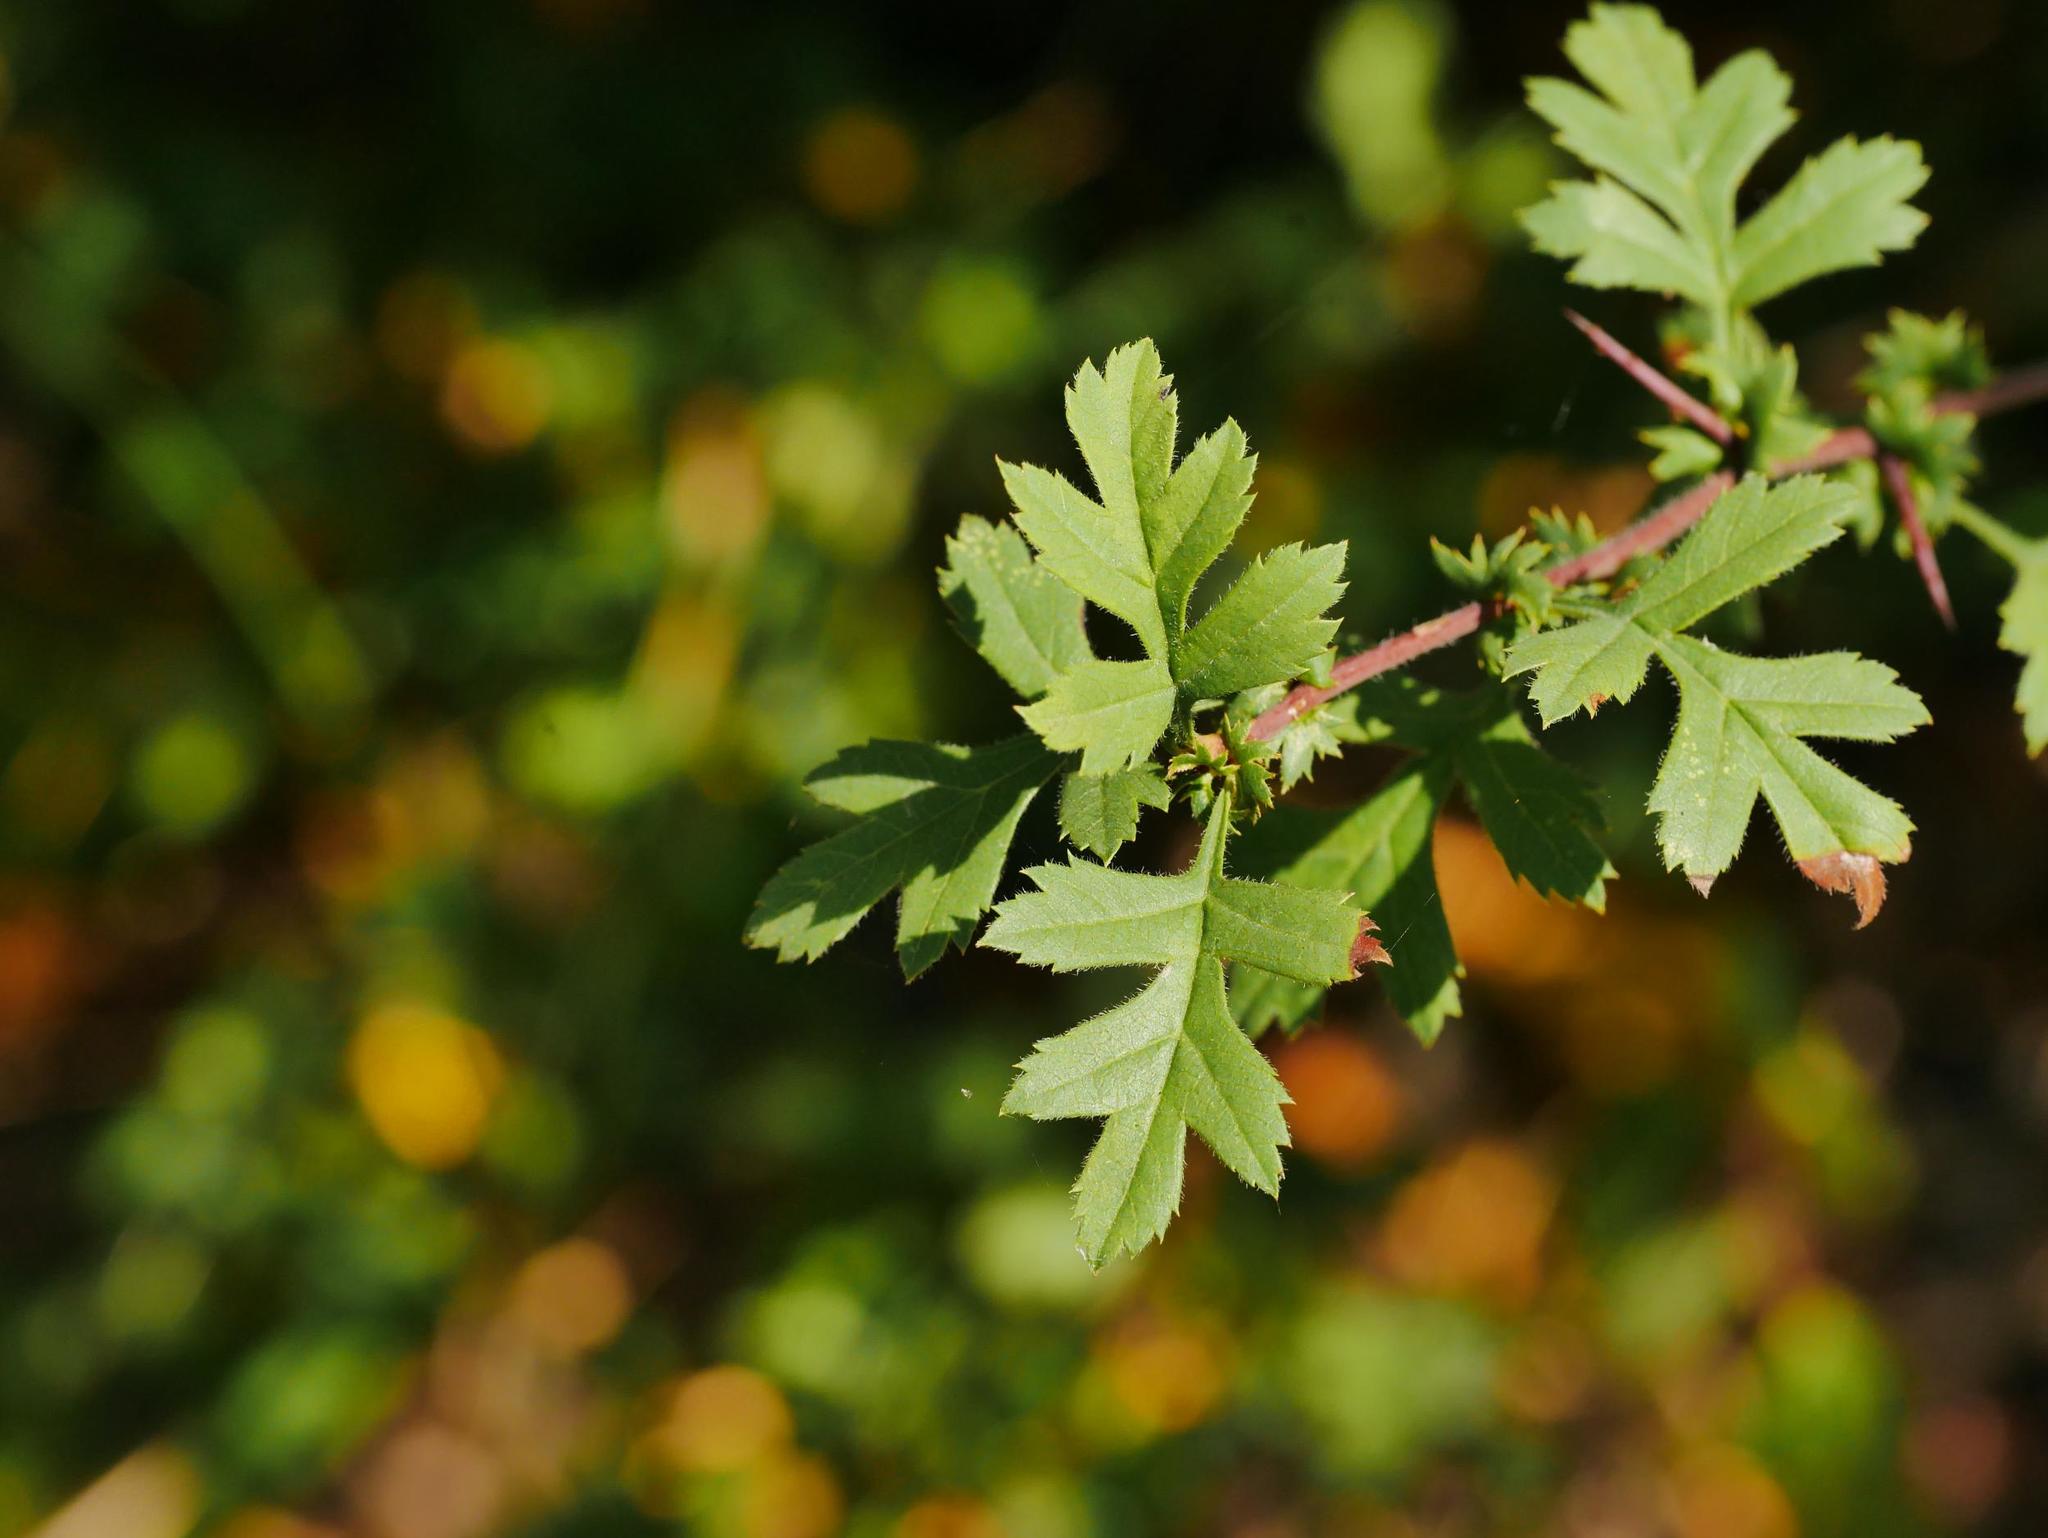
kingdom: Plantae
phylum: Tracheophyta
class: Magnoliopsida
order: Rosales
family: Rosaceae
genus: Crataegus
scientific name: Crataegus monogyna
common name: Hawthorn
